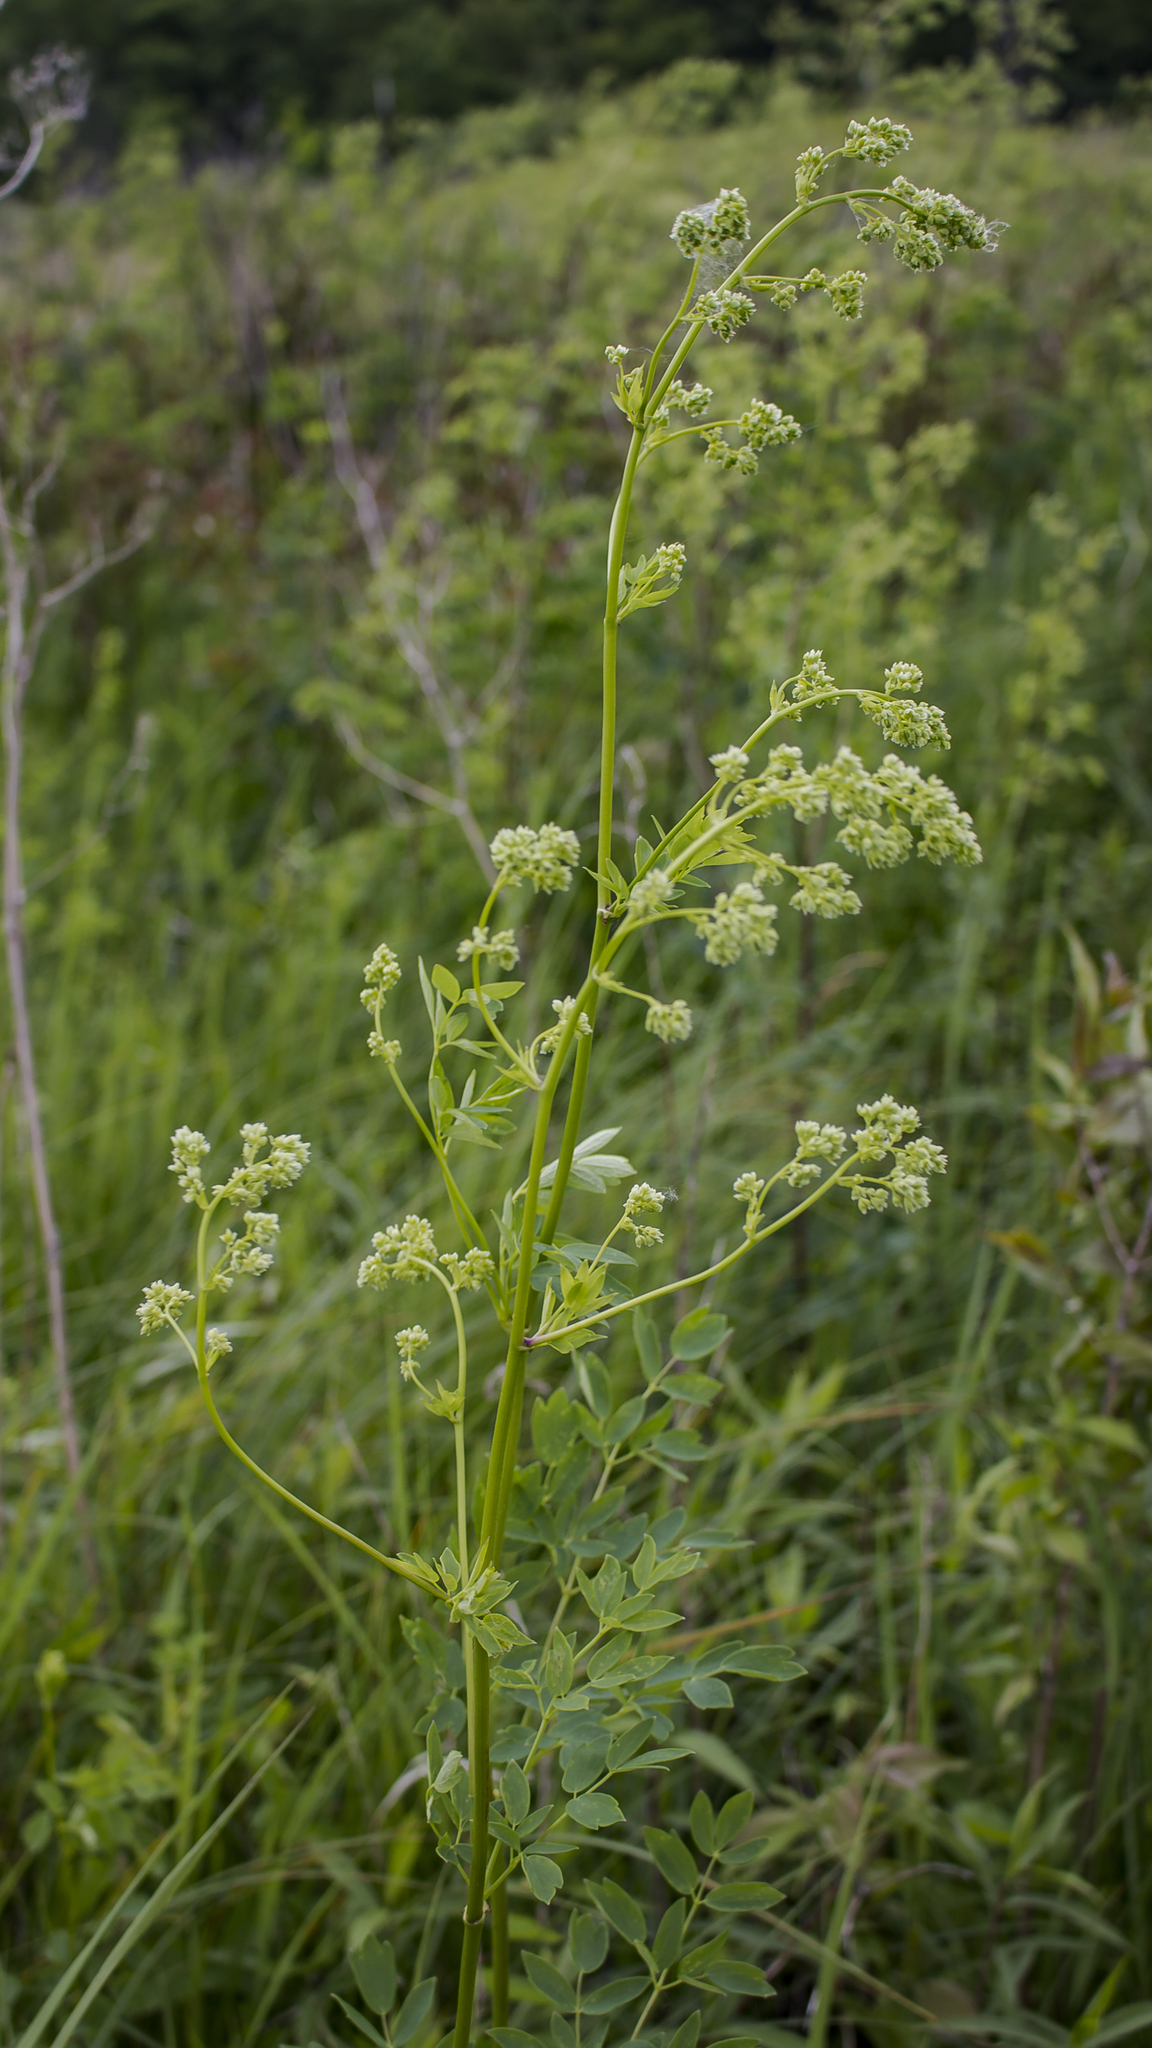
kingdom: Plantae
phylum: Tracheophyta
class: Magnoliopsida
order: Ranunculales
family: Ranunculaceae
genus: Thalictrum
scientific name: Thalictrum dasycarpum
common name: Purple meadow-rue
